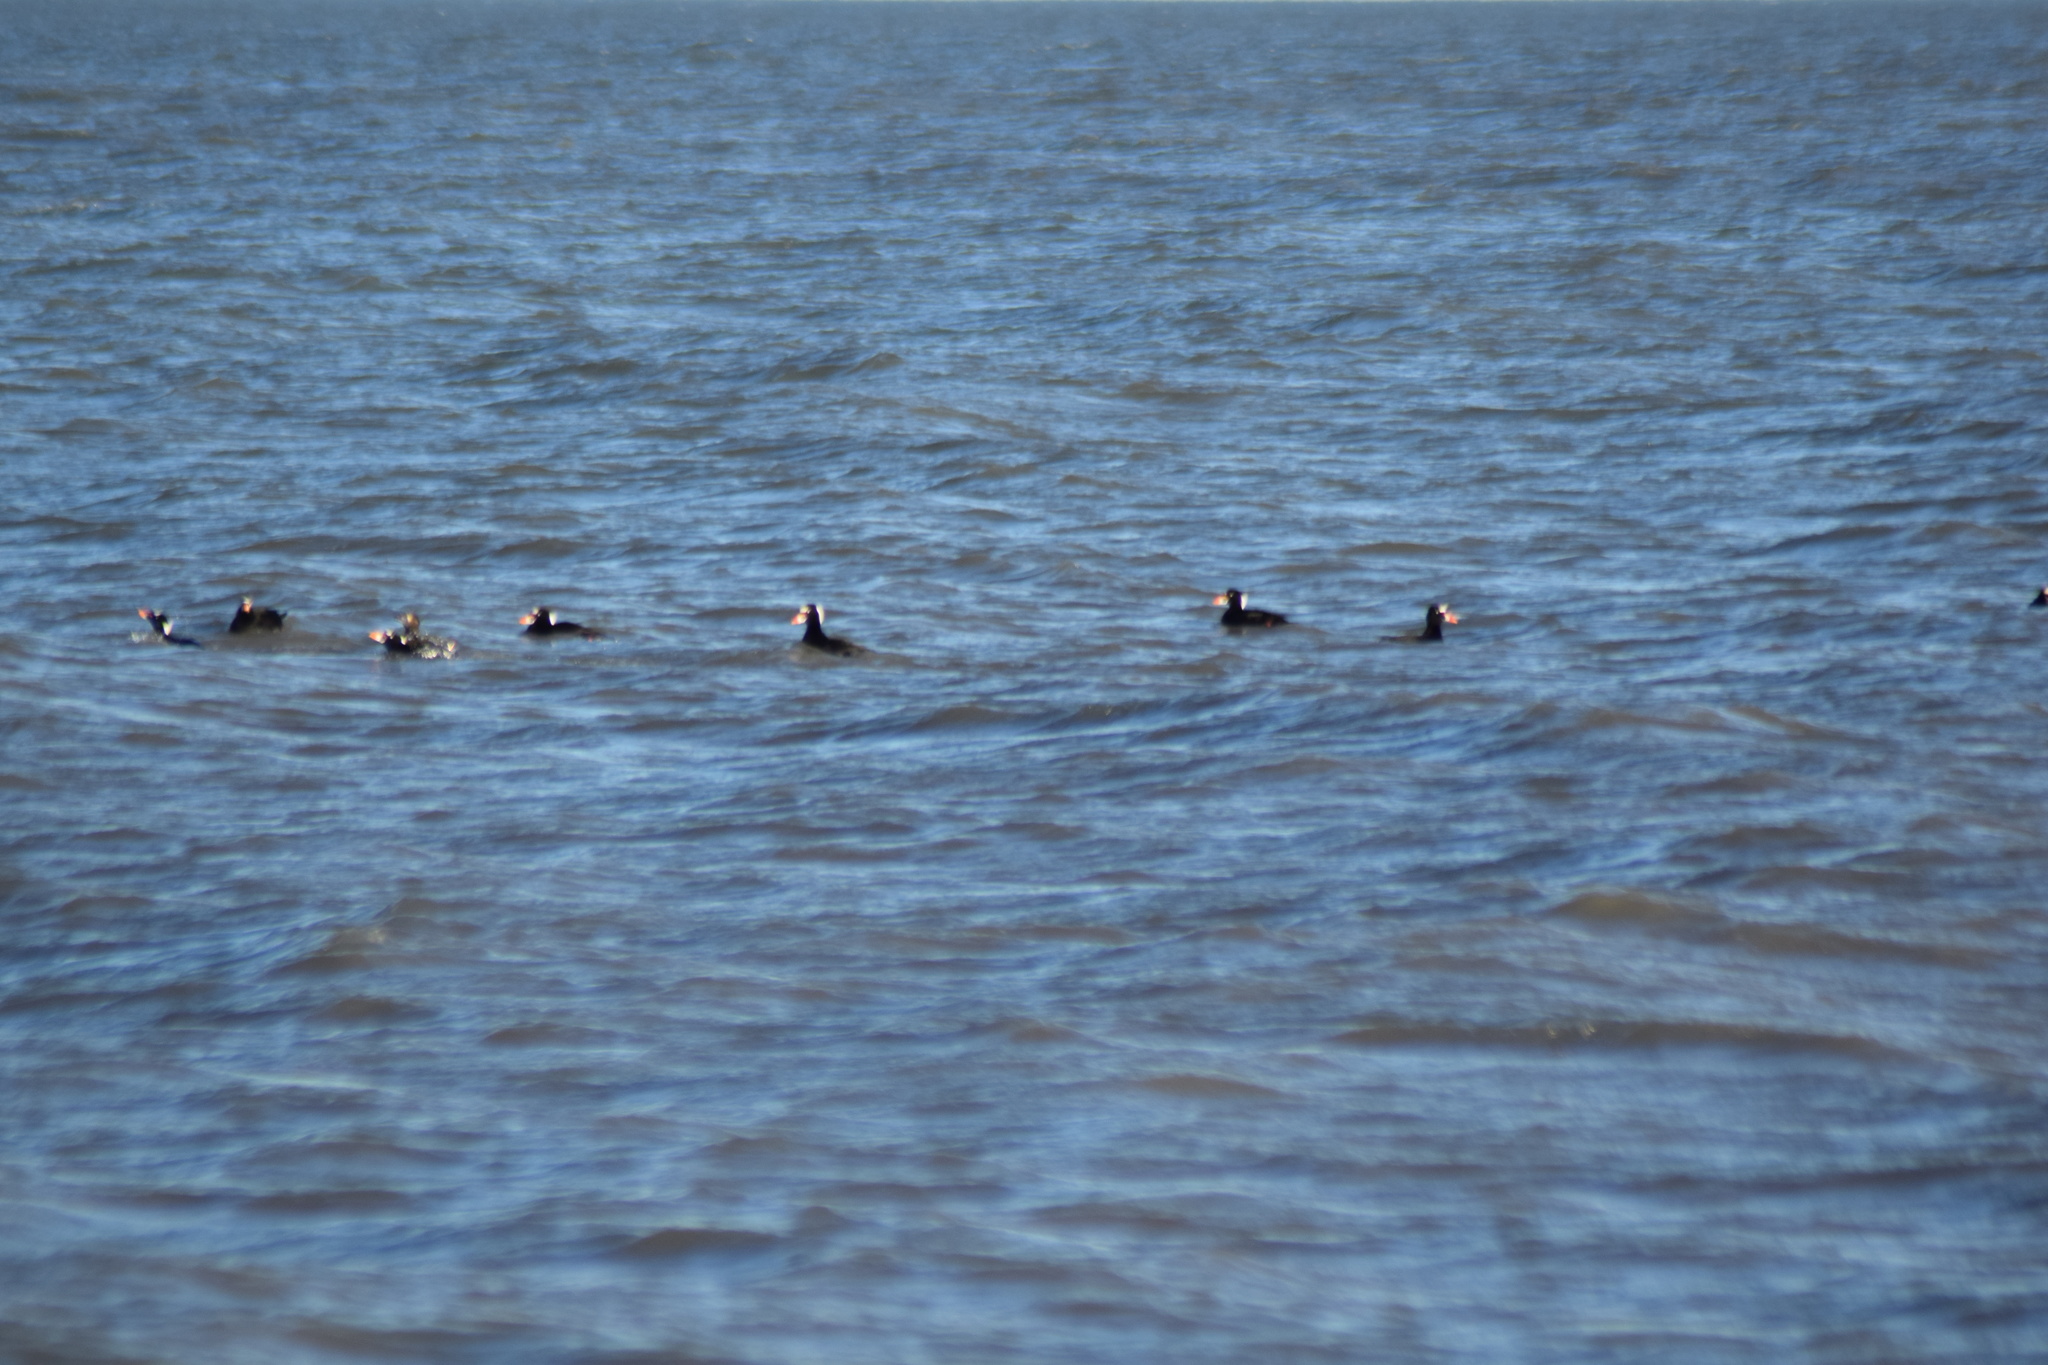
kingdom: Animalia
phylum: Chordata
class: Aves
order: Anseriformes
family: Anatidae
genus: Melanitta
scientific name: Melanitta perspicillata
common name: Surf scoter
